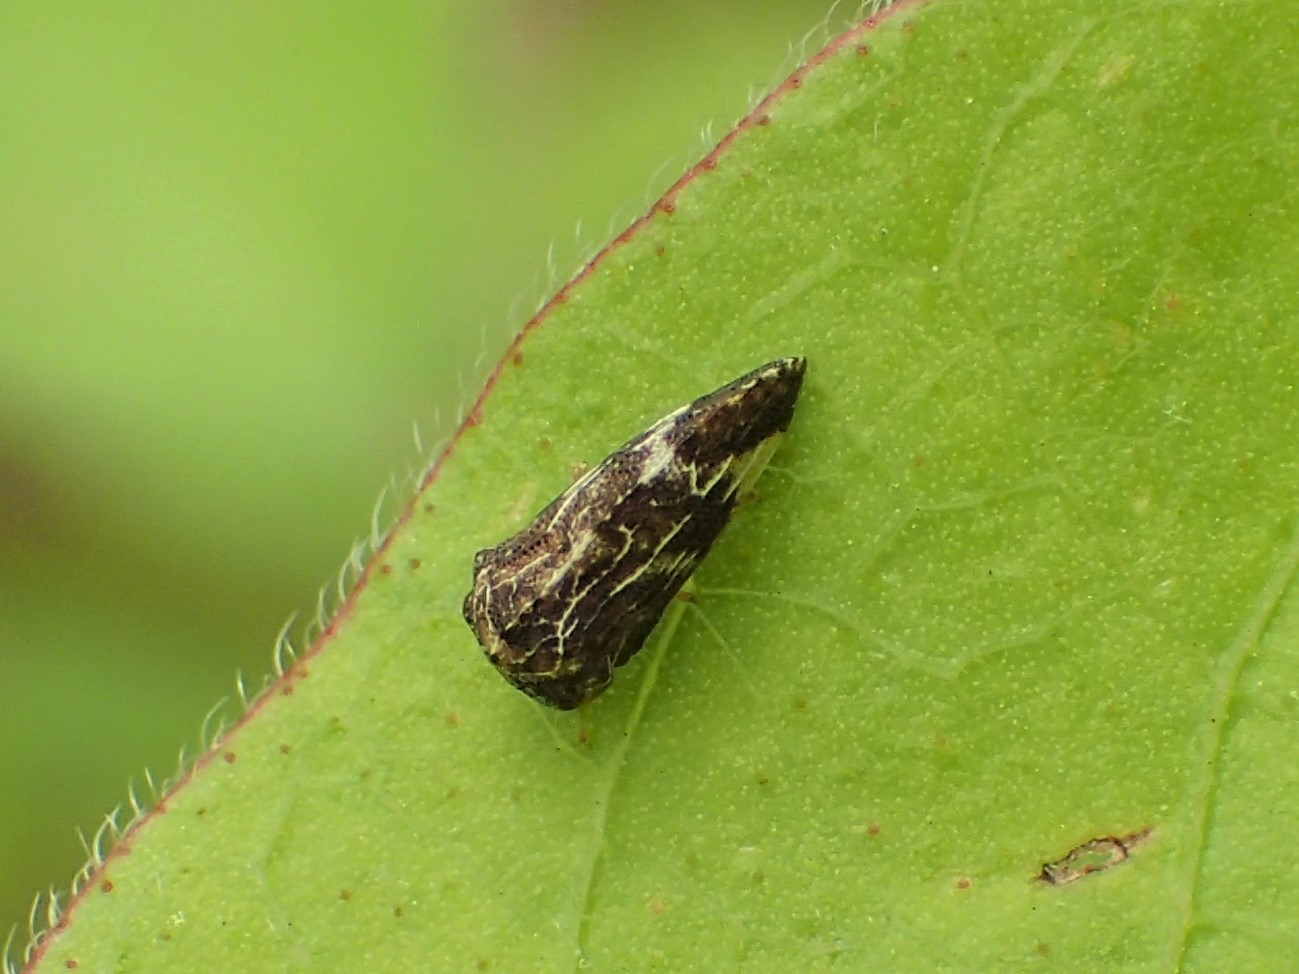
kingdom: Animalia
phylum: Arthropoda
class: Insecta
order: Hemiptera
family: Membracidae
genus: Publilia
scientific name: Publilia concava
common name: Aster treehopper
